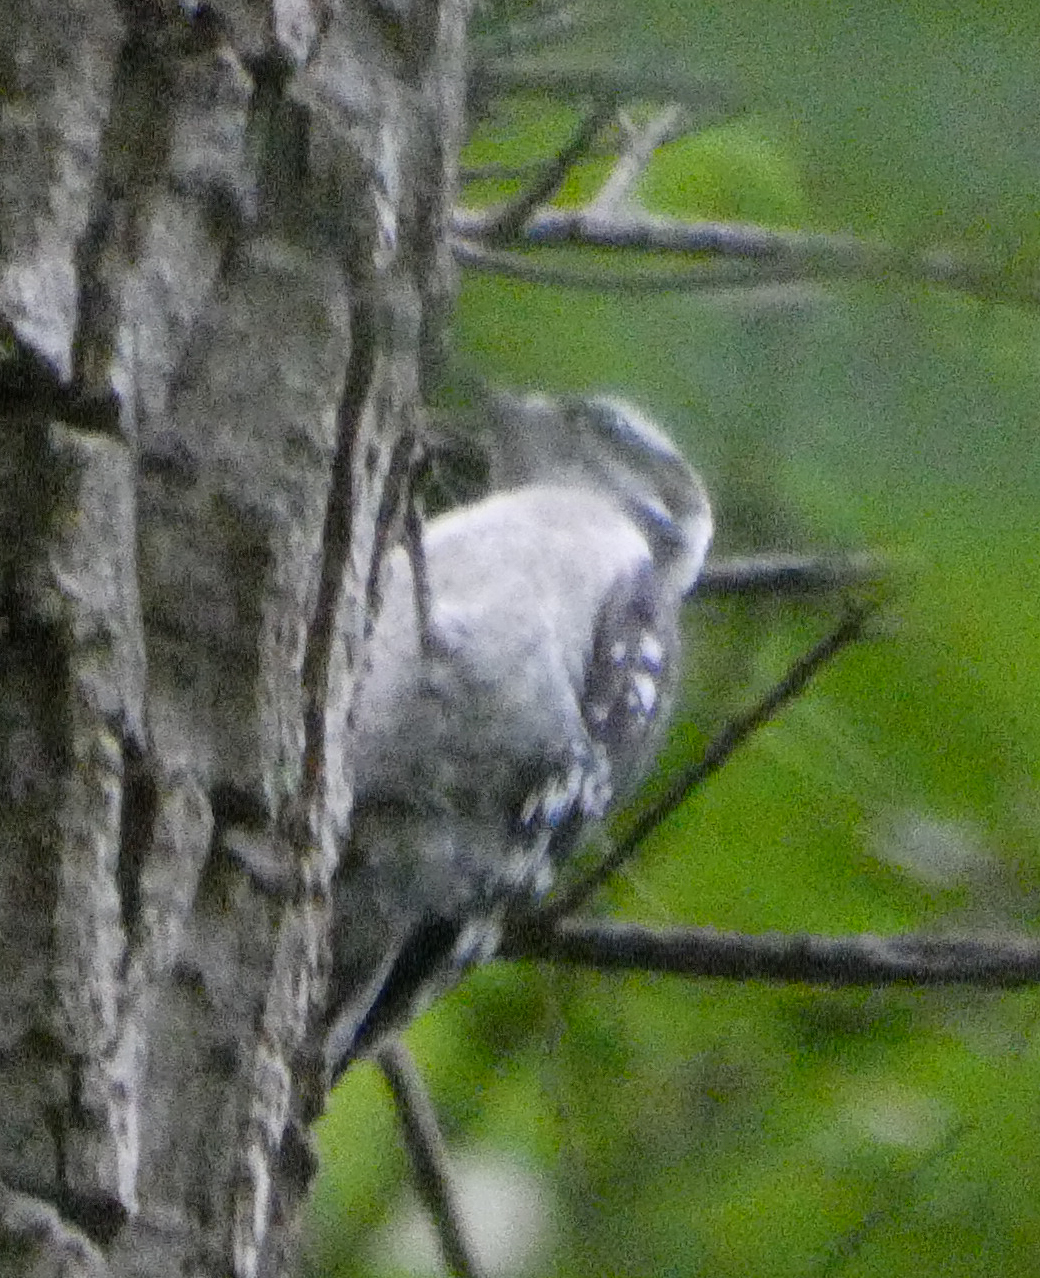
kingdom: Animalia
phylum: Chordata
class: Aves
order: Piciformes
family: Picidae
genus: Dryobates
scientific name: Dryobates pubescens
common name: Downy woodpecker
